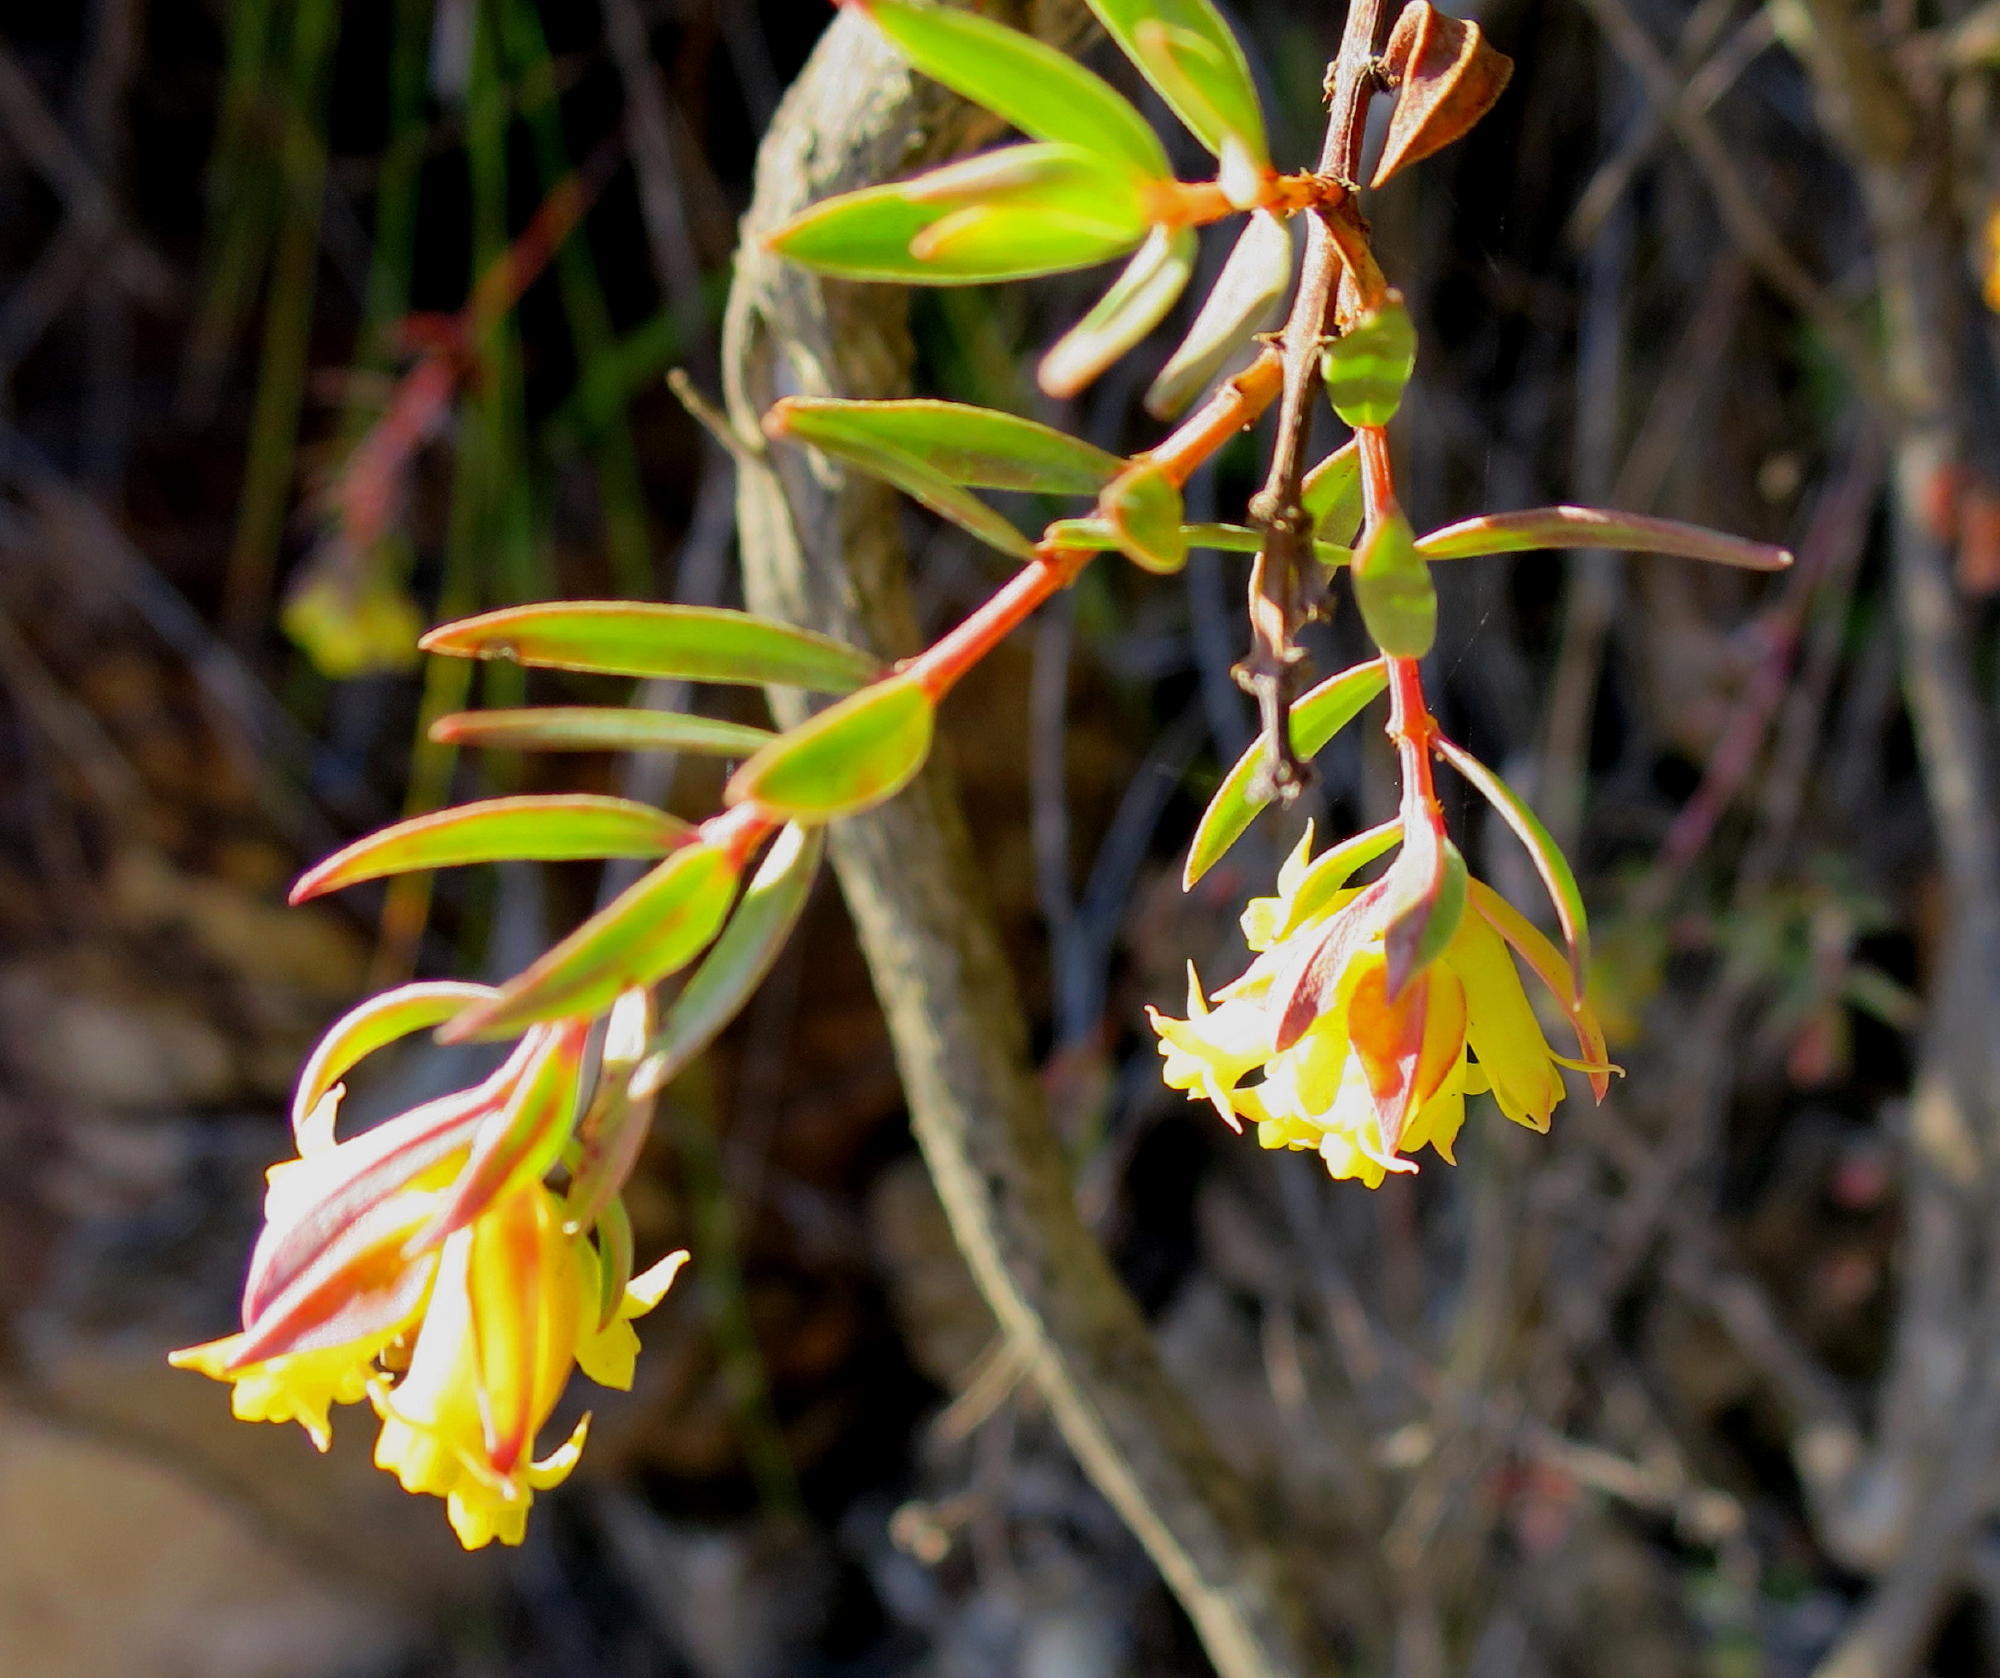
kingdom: Plantae
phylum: Tracheophyta
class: Magnoliopsida
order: Myrtales
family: Penaeaceae
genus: Penaea
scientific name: Penaea acutifolia
